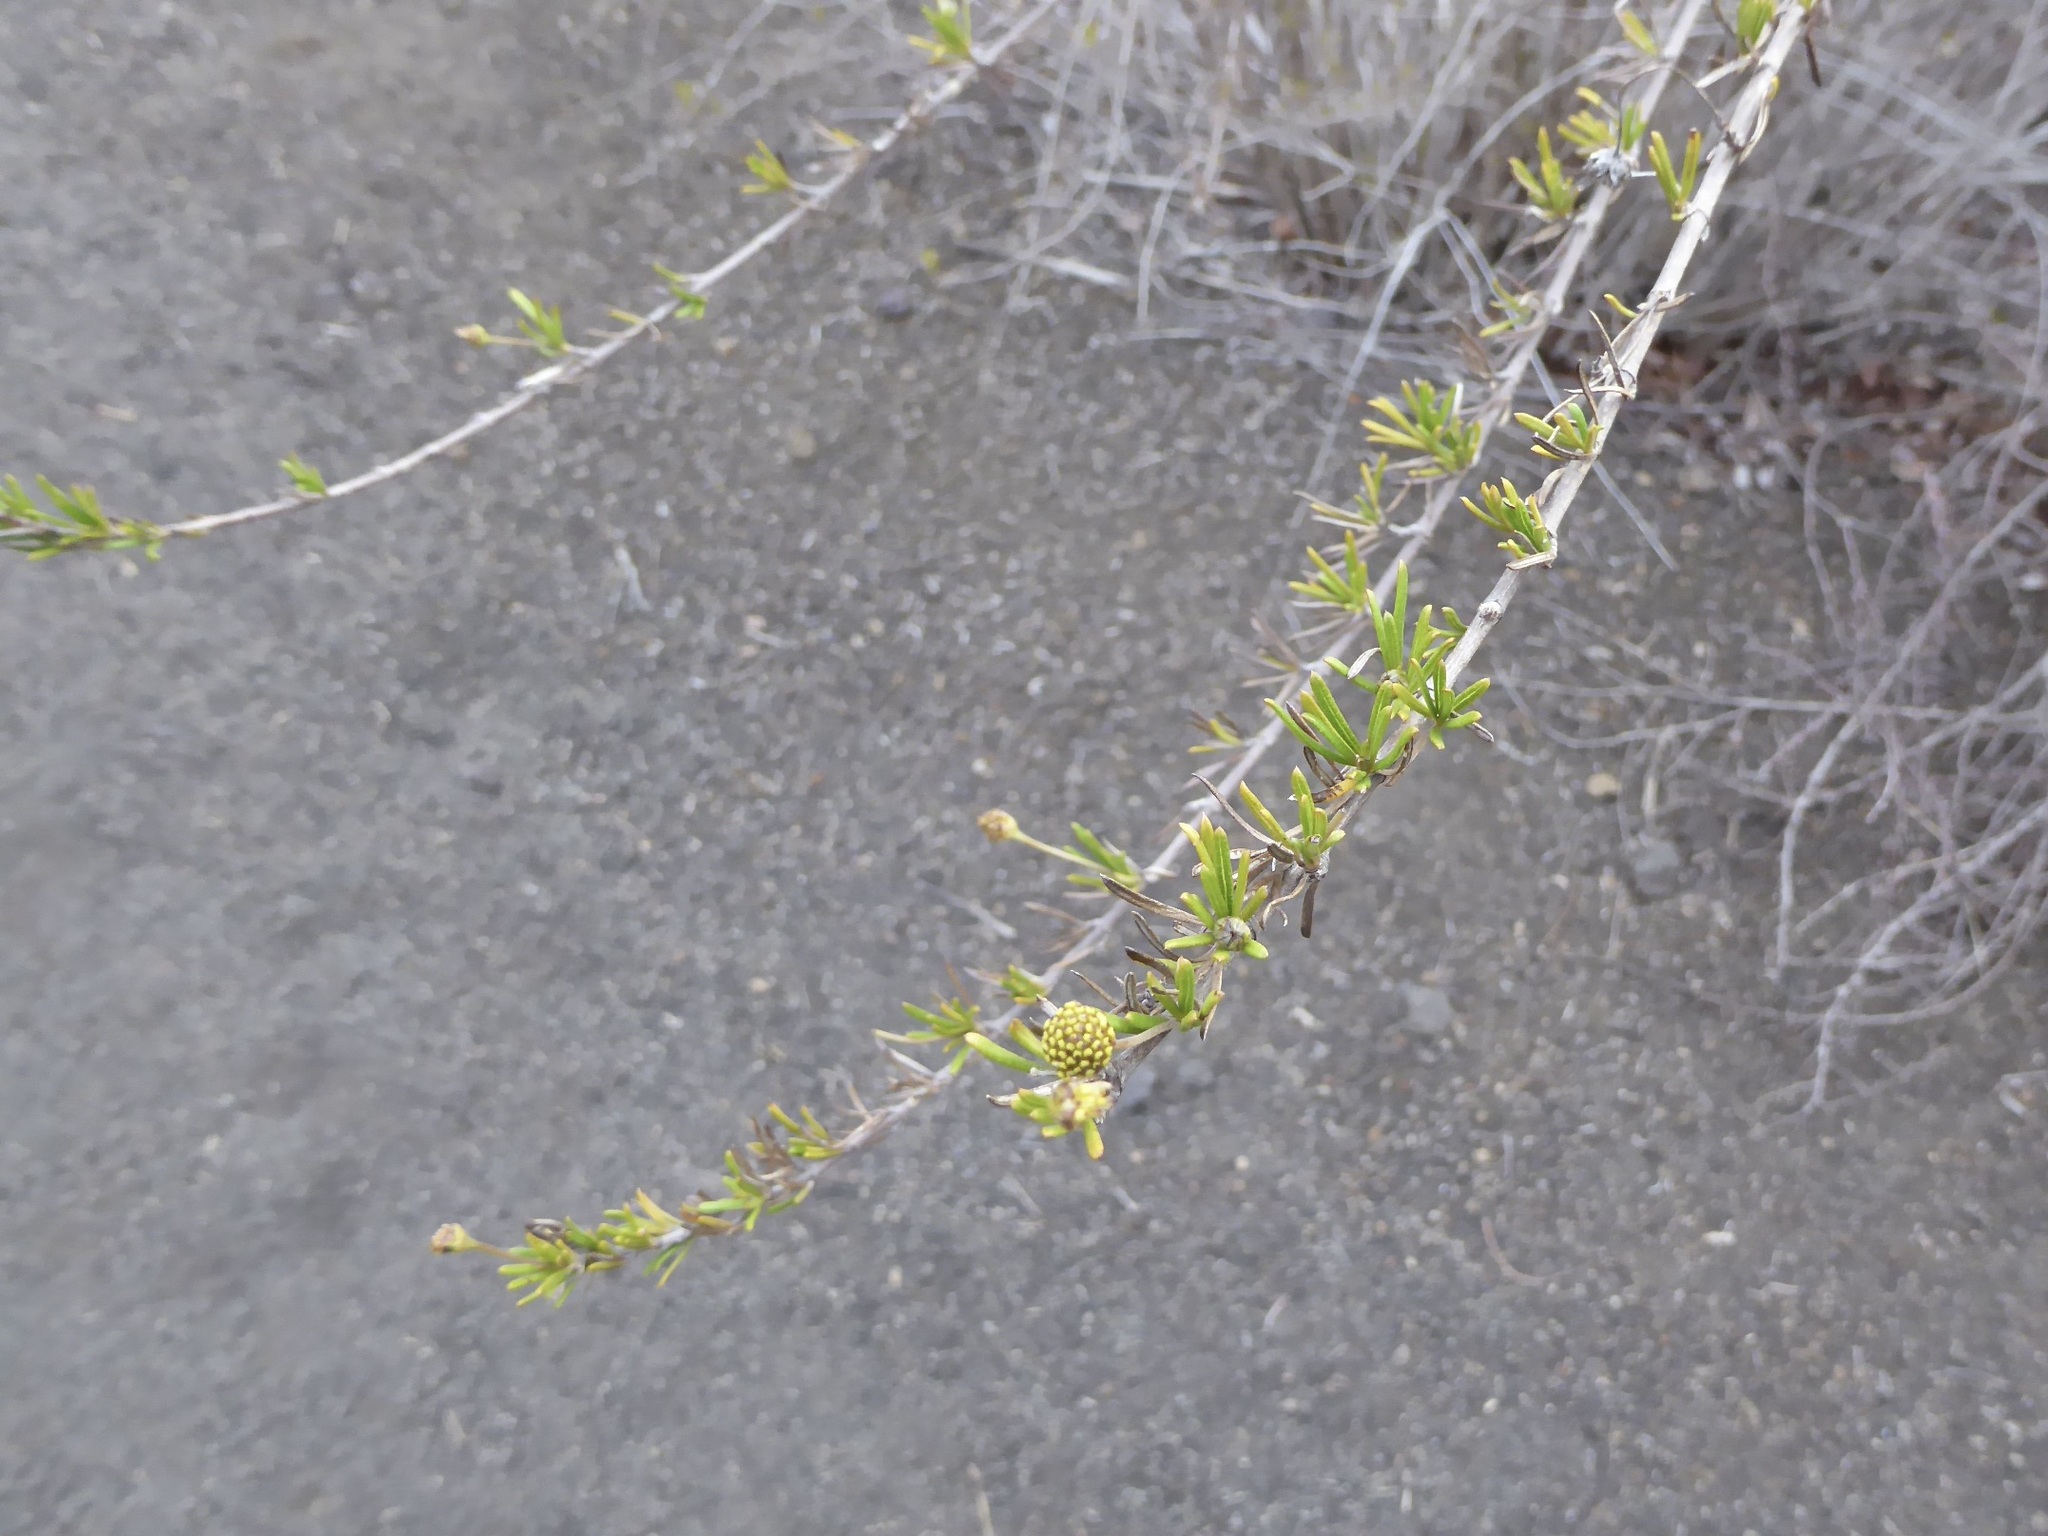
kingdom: Plantae
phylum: Tracheophyta
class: Magnoliopsida
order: Asterales
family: Asteraceae
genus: Trigonopterum
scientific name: Trigonopterum laricifolium
